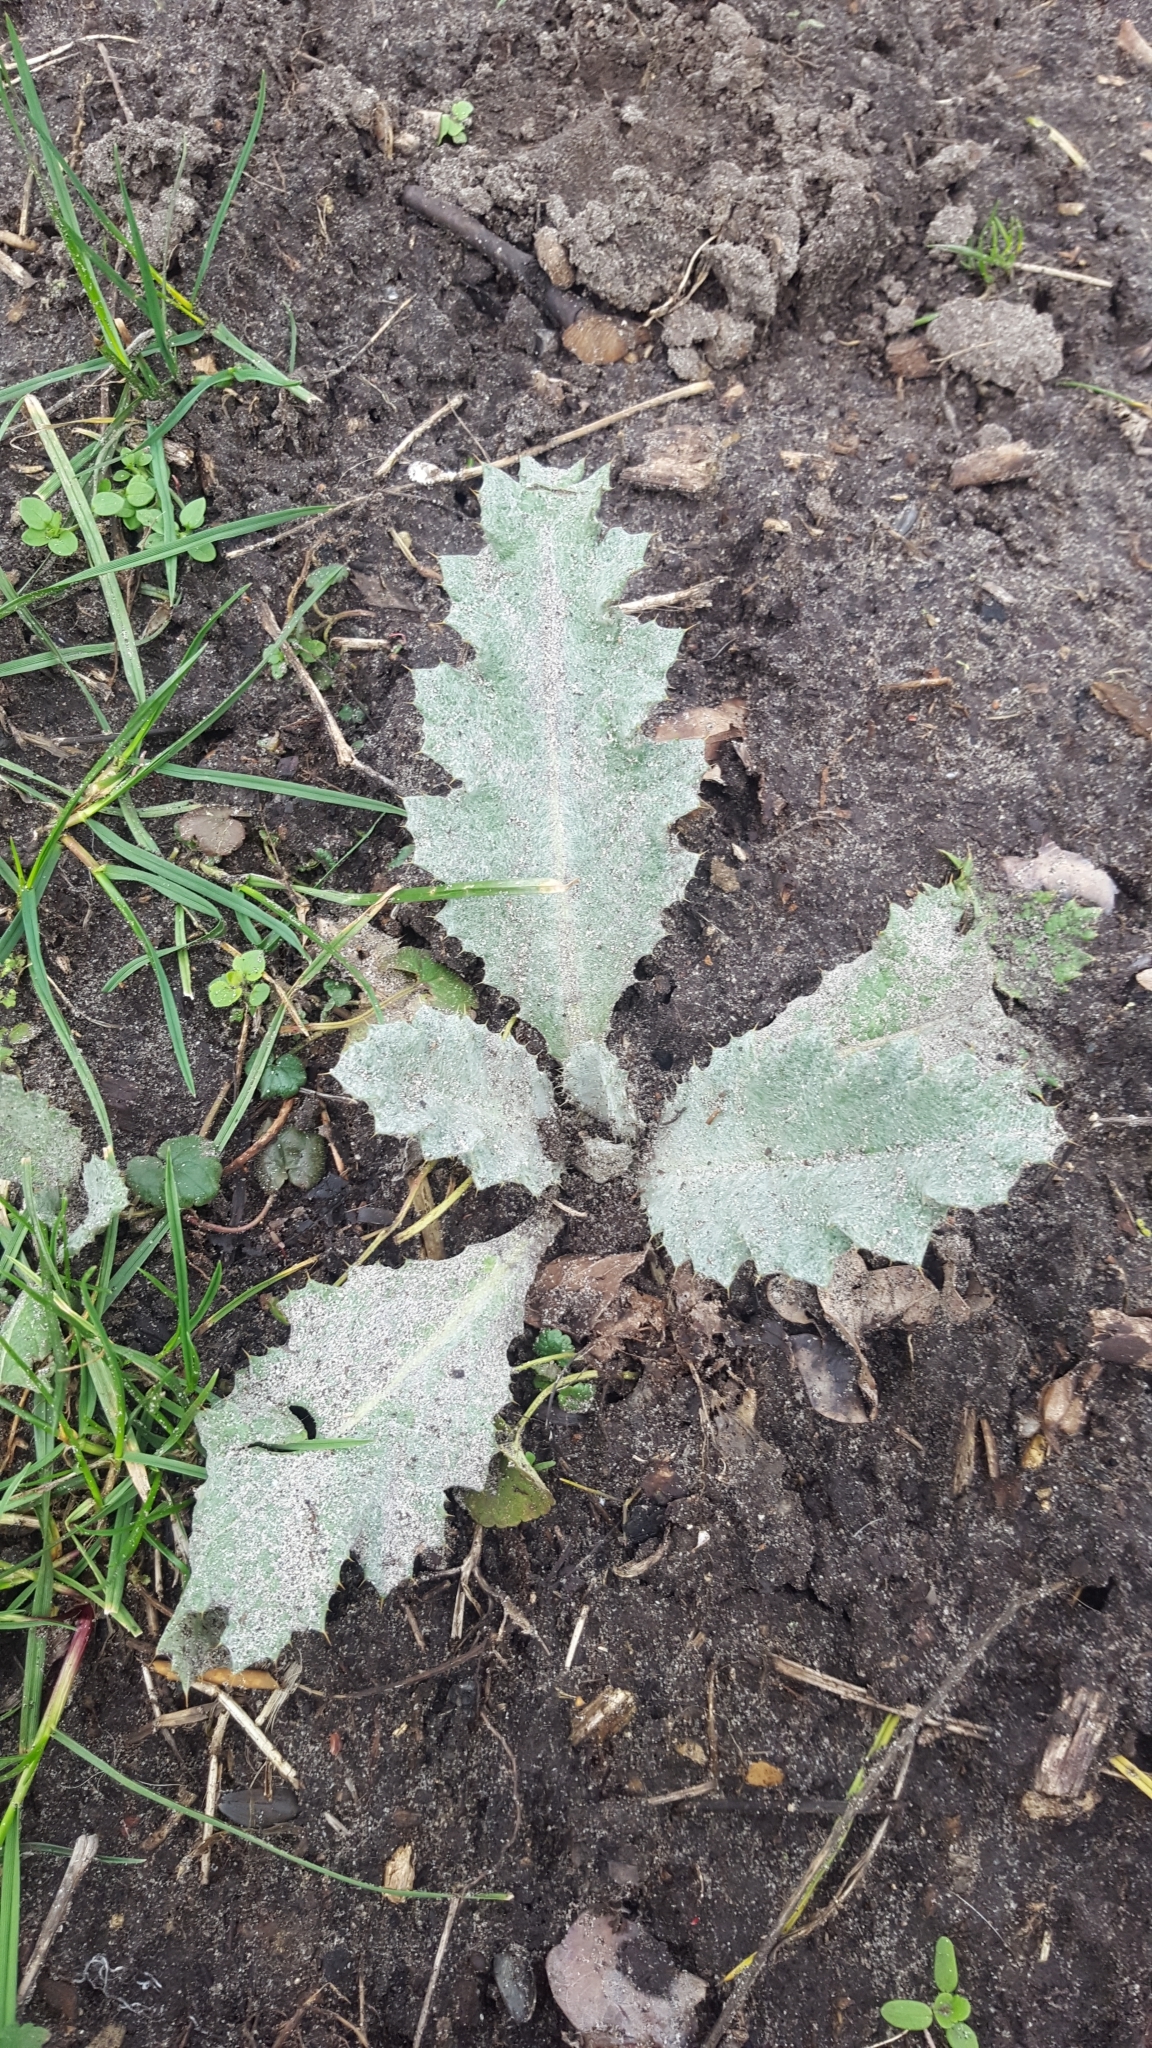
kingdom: Plantae
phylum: Tracheophyta
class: Magnoliopsida
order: Asterales
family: Asteraceae
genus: Onopordum
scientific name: Onopordum acanthium
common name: Scotch thistle
